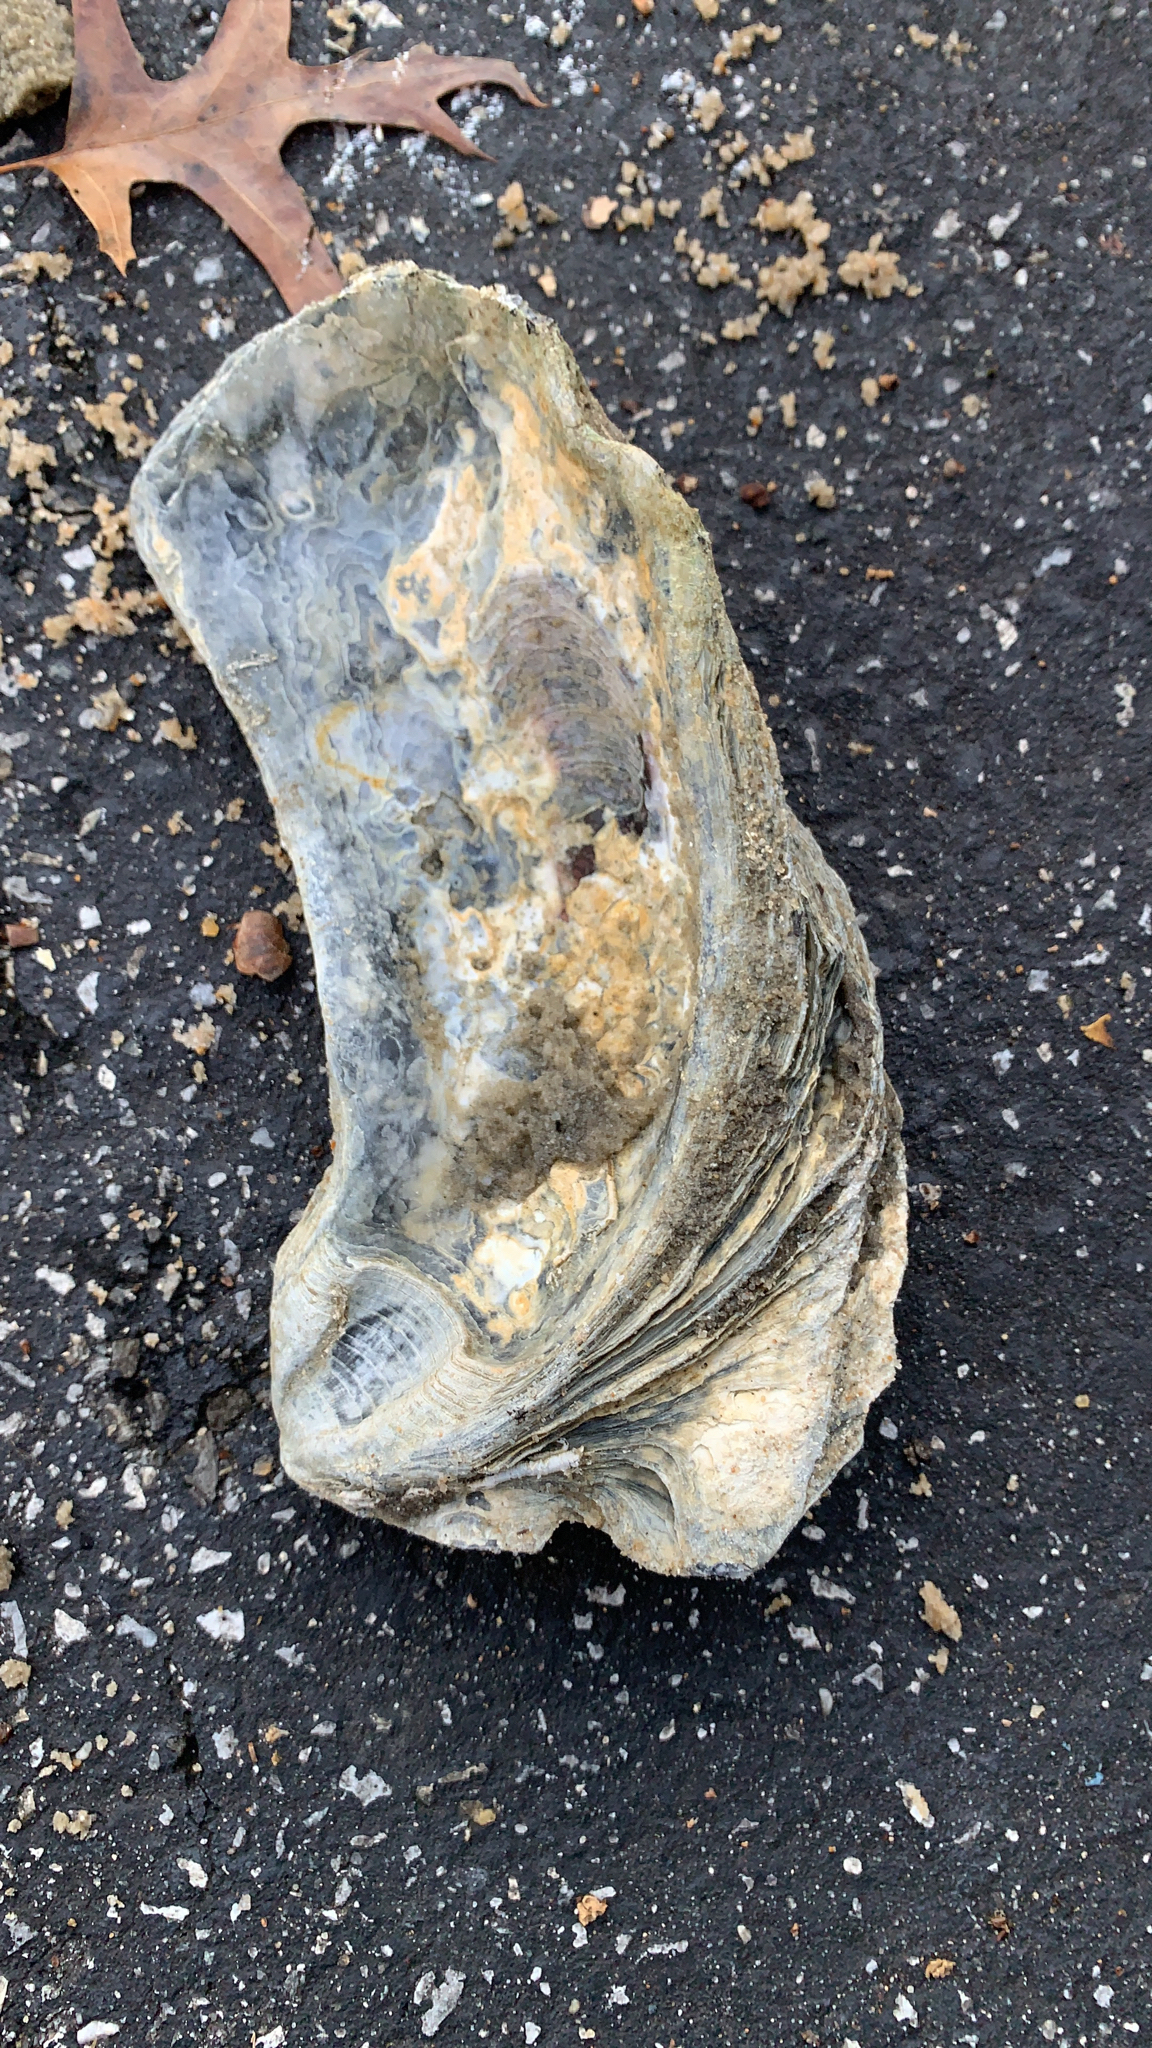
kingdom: Animalia
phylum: Mollusca
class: Bivalvia
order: Ostreida
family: Ostreidae
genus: Crassostrea
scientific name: Crassostrea virginica
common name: American oyster
